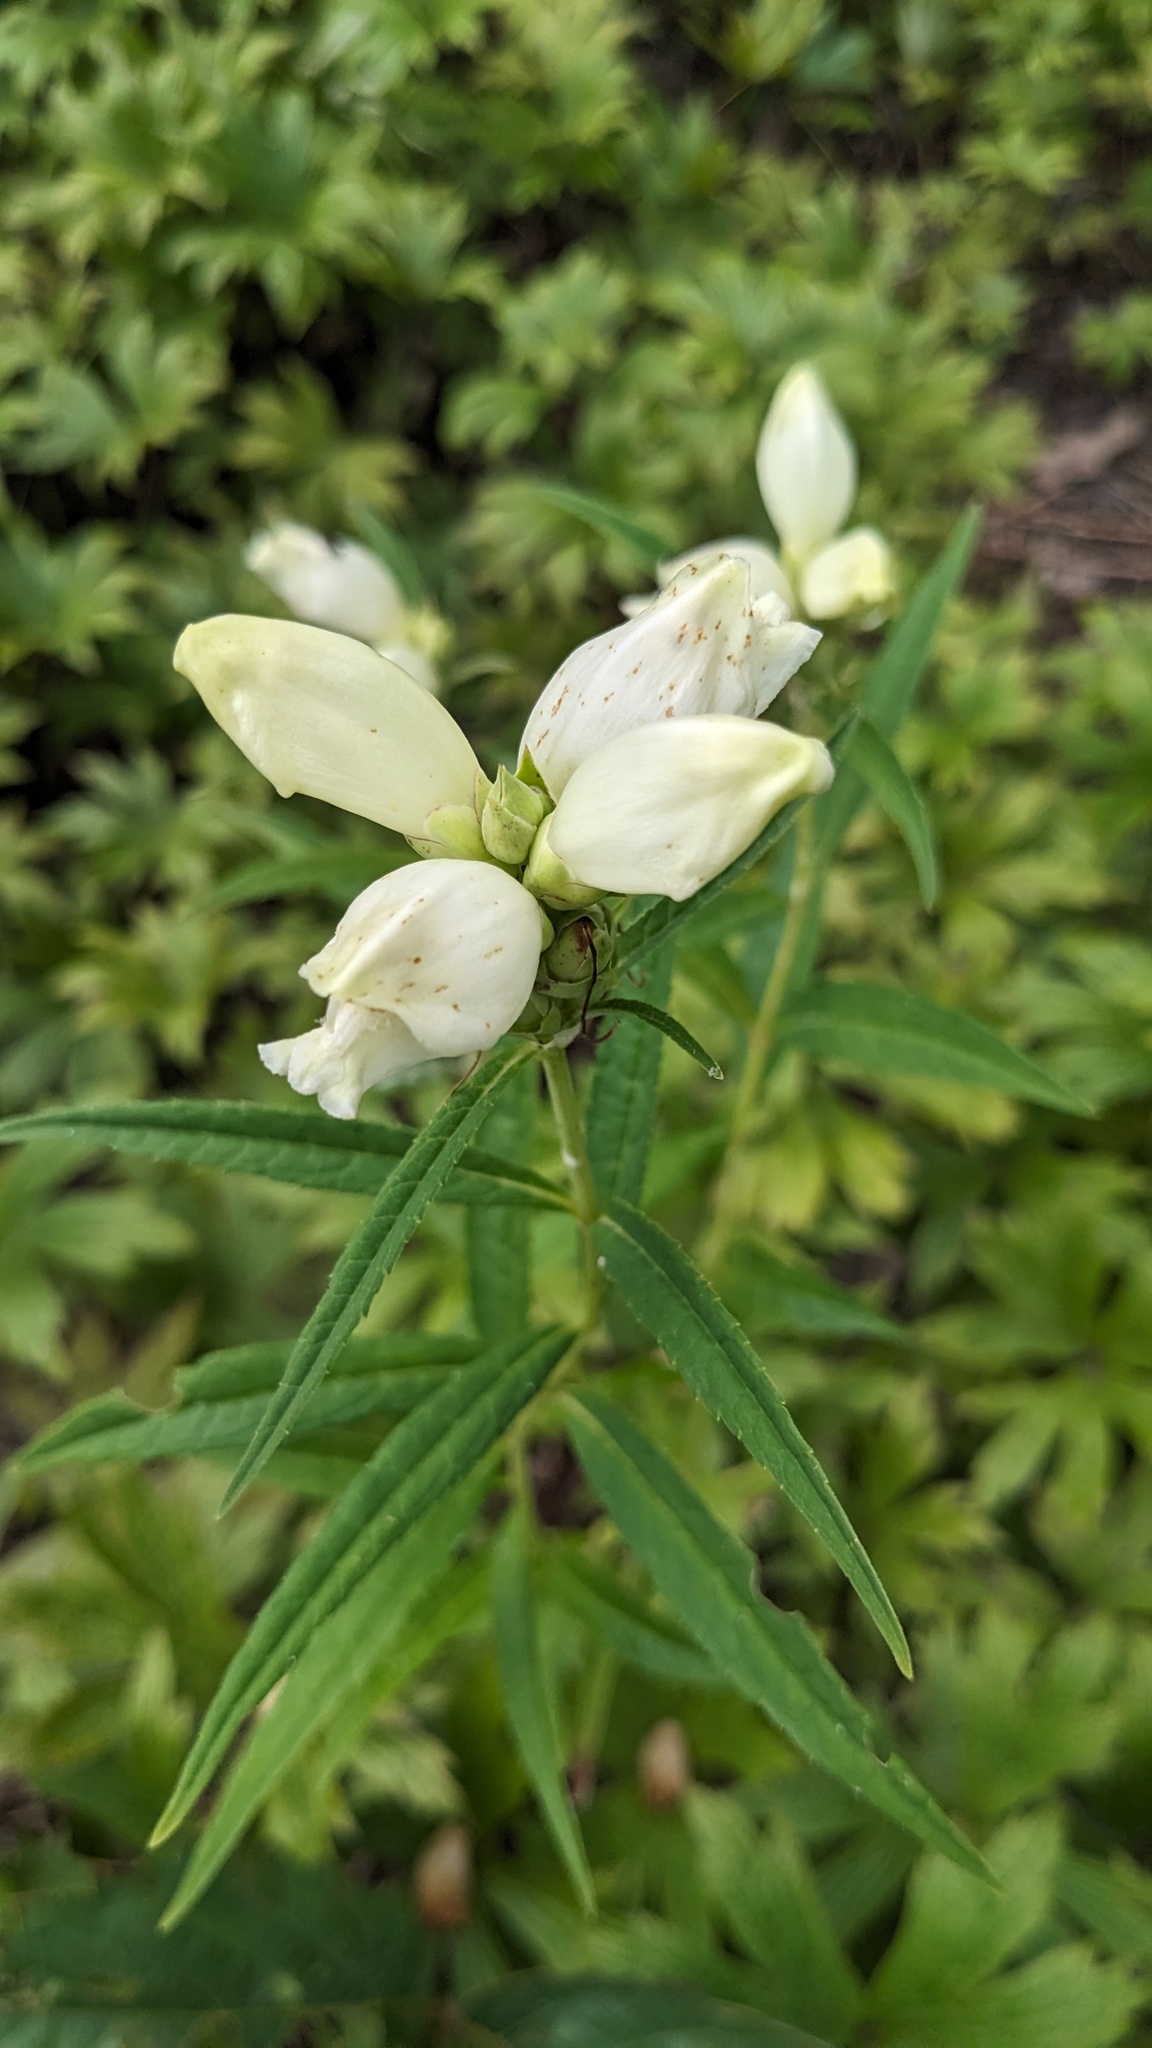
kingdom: Plantae
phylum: Tracheophyta
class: Magnoliopsida
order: Lamiales
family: Plantaginaceae
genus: Chelone
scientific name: Chelone glabra
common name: Snakehead
